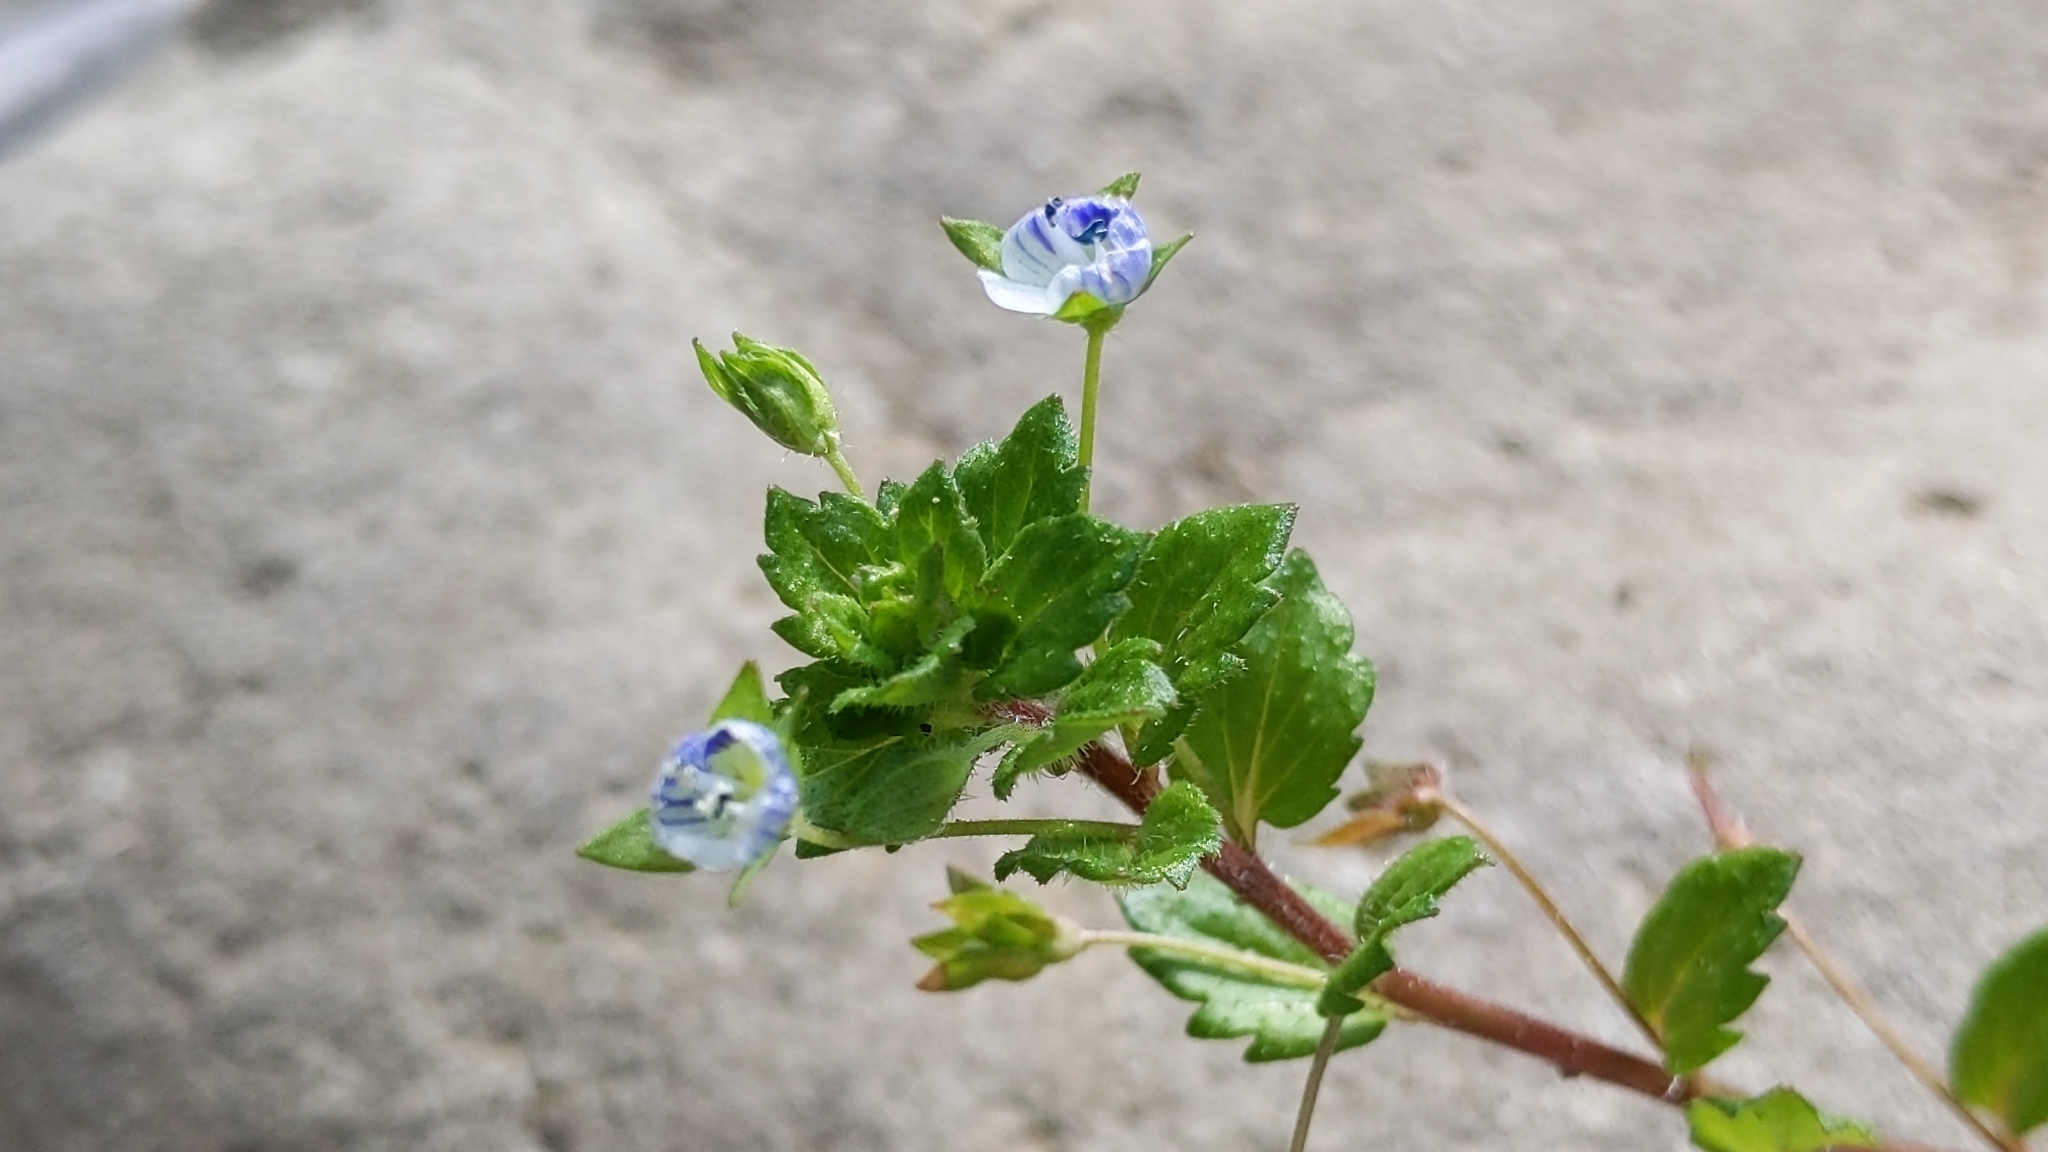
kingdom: Plantae
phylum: Tracheophyta
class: Magnoliopsida
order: Lamiales
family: Plantaginaceae
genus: Veronica
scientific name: Veronica persica
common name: Common field-speedwell
